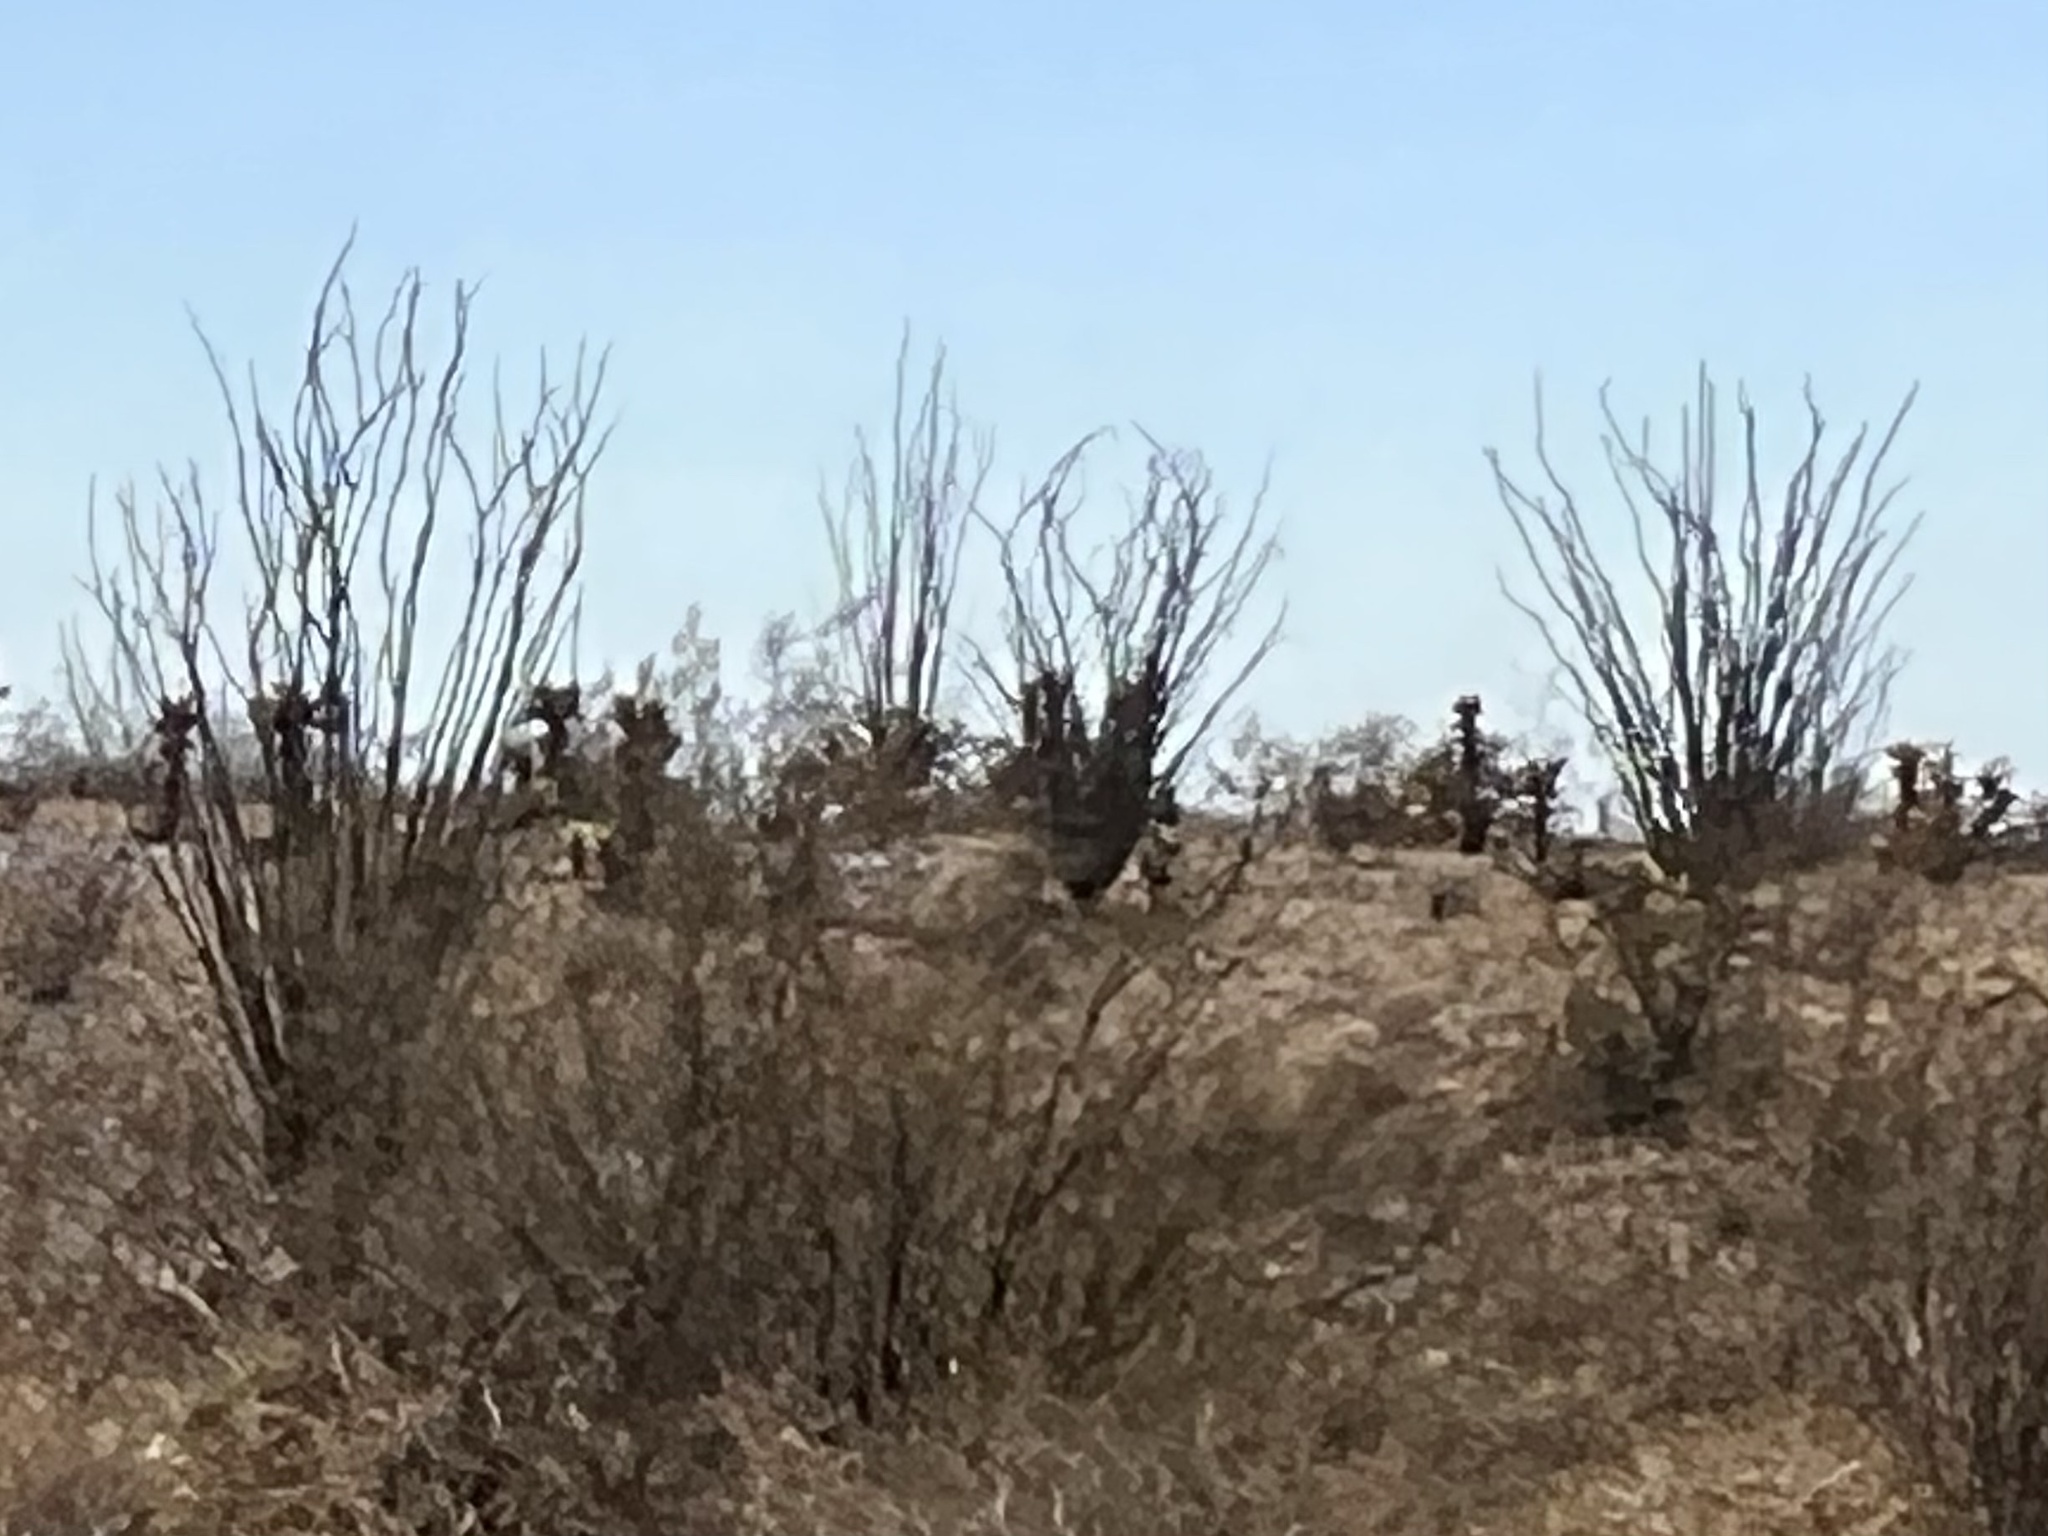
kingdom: Plantae
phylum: Tracheophyta
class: Magnoliopsida
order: Ericales
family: Fouquieriaceae
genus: Fouquieria
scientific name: Fouquieria splendens
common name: Vine-cactus
